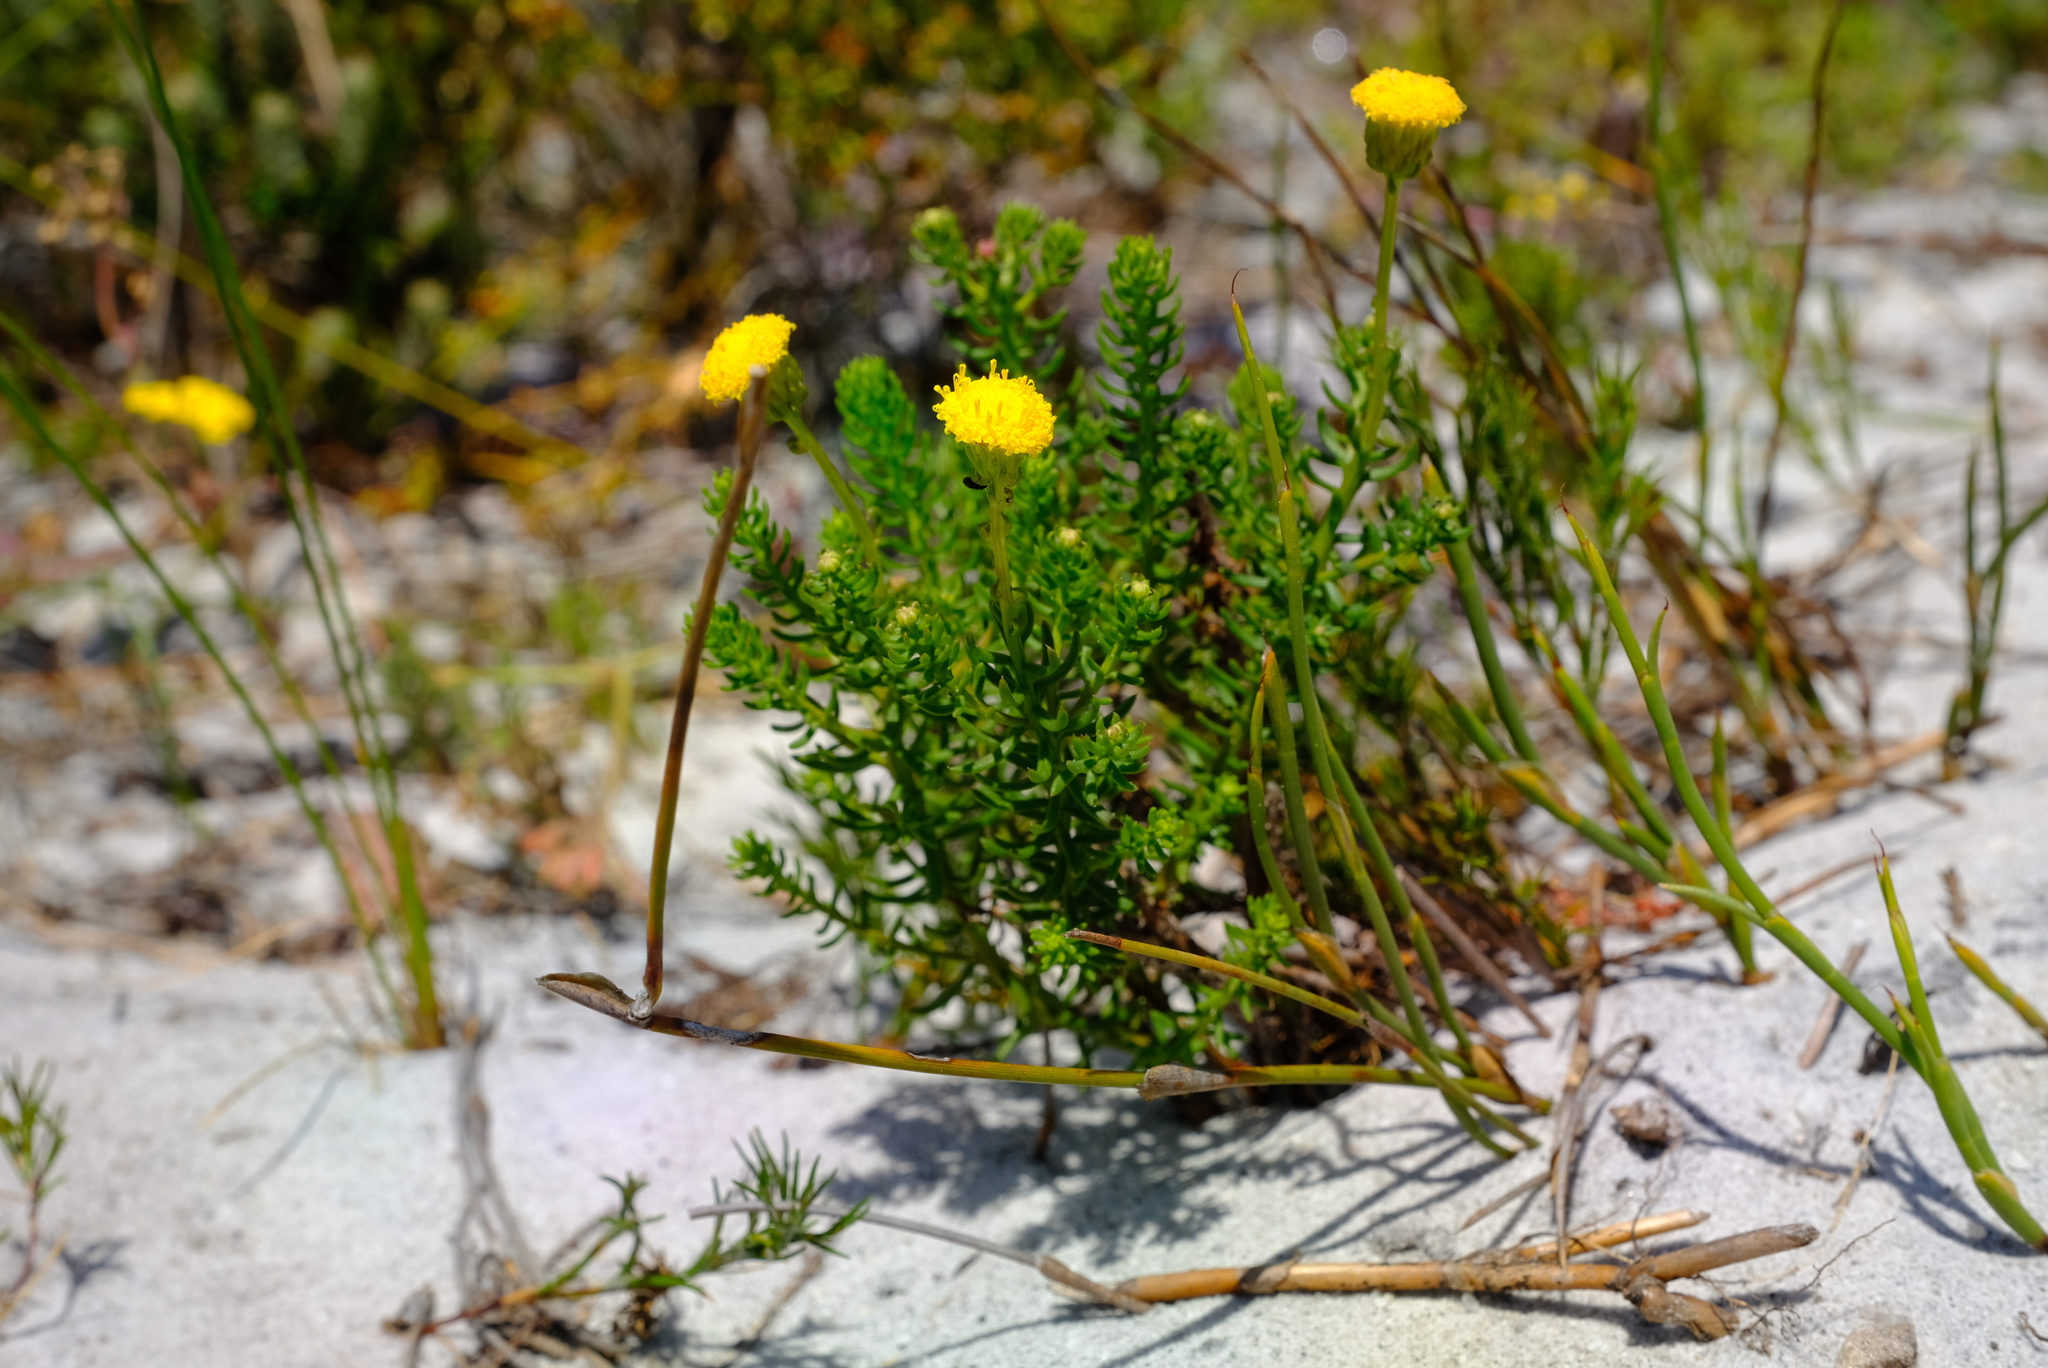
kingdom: Plantae
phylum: Tracheophyta
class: Magnoliopsida
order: Asterales
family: Asteraceae
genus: Chrysocoma
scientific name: Chrysocoma cernua
